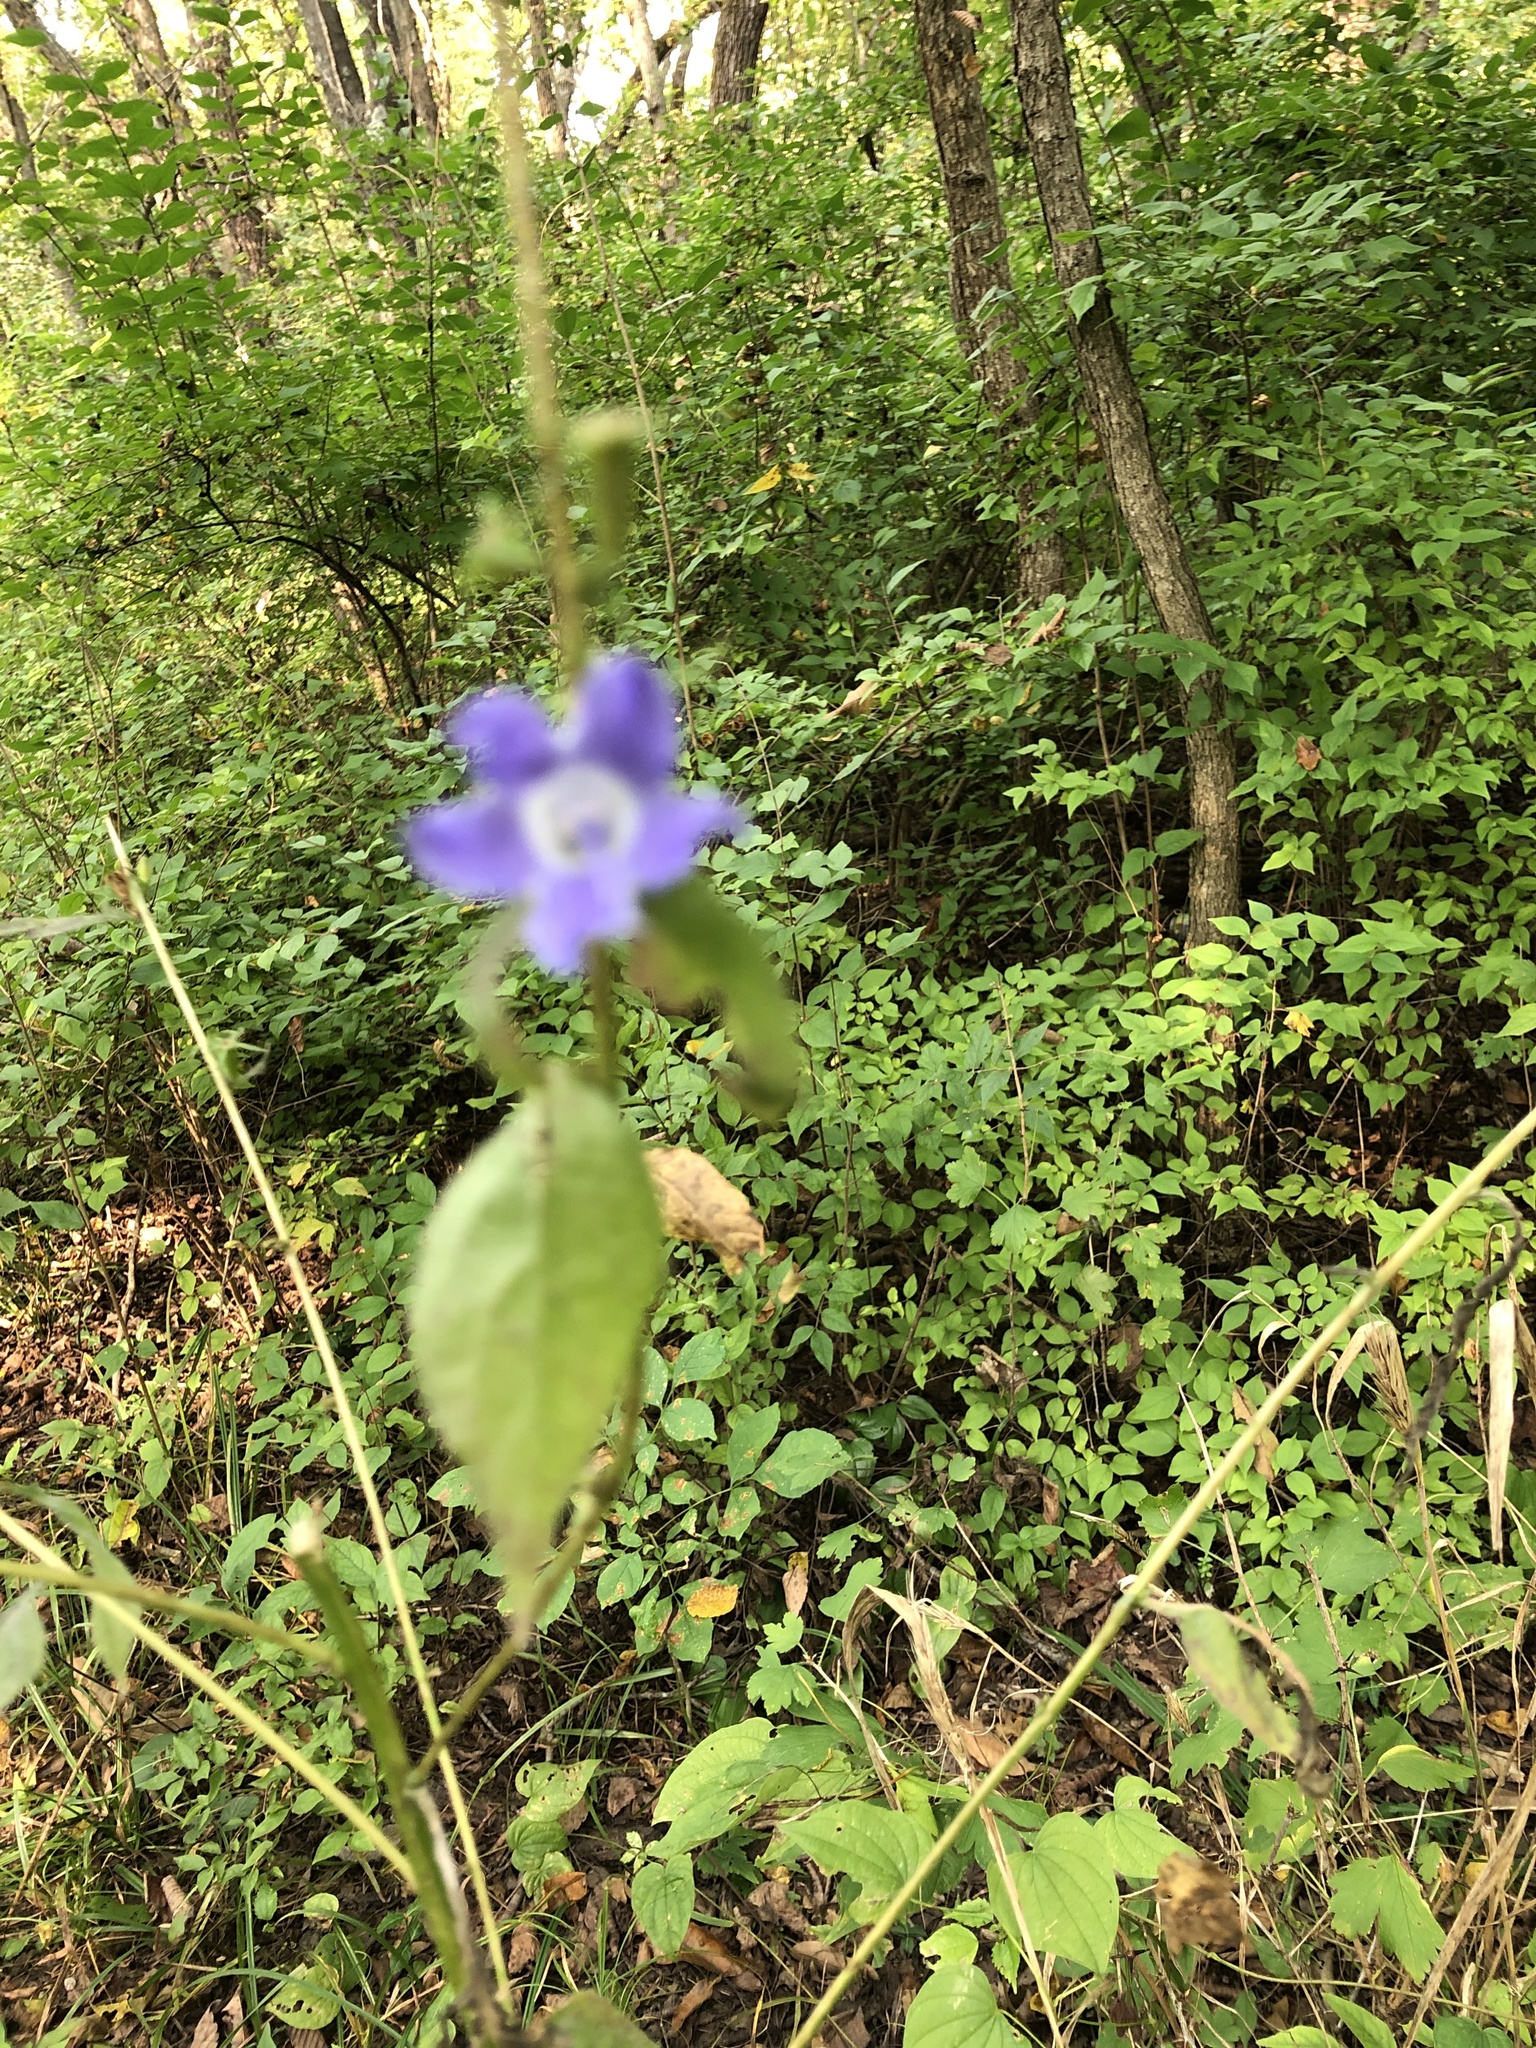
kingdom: Plantae
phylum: Tracheophyta
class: Magnoliopsida
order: Asterales
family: Campanulaceae
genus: Campanulastrum
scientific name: Campanulastrum americanum
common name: American bellflower
